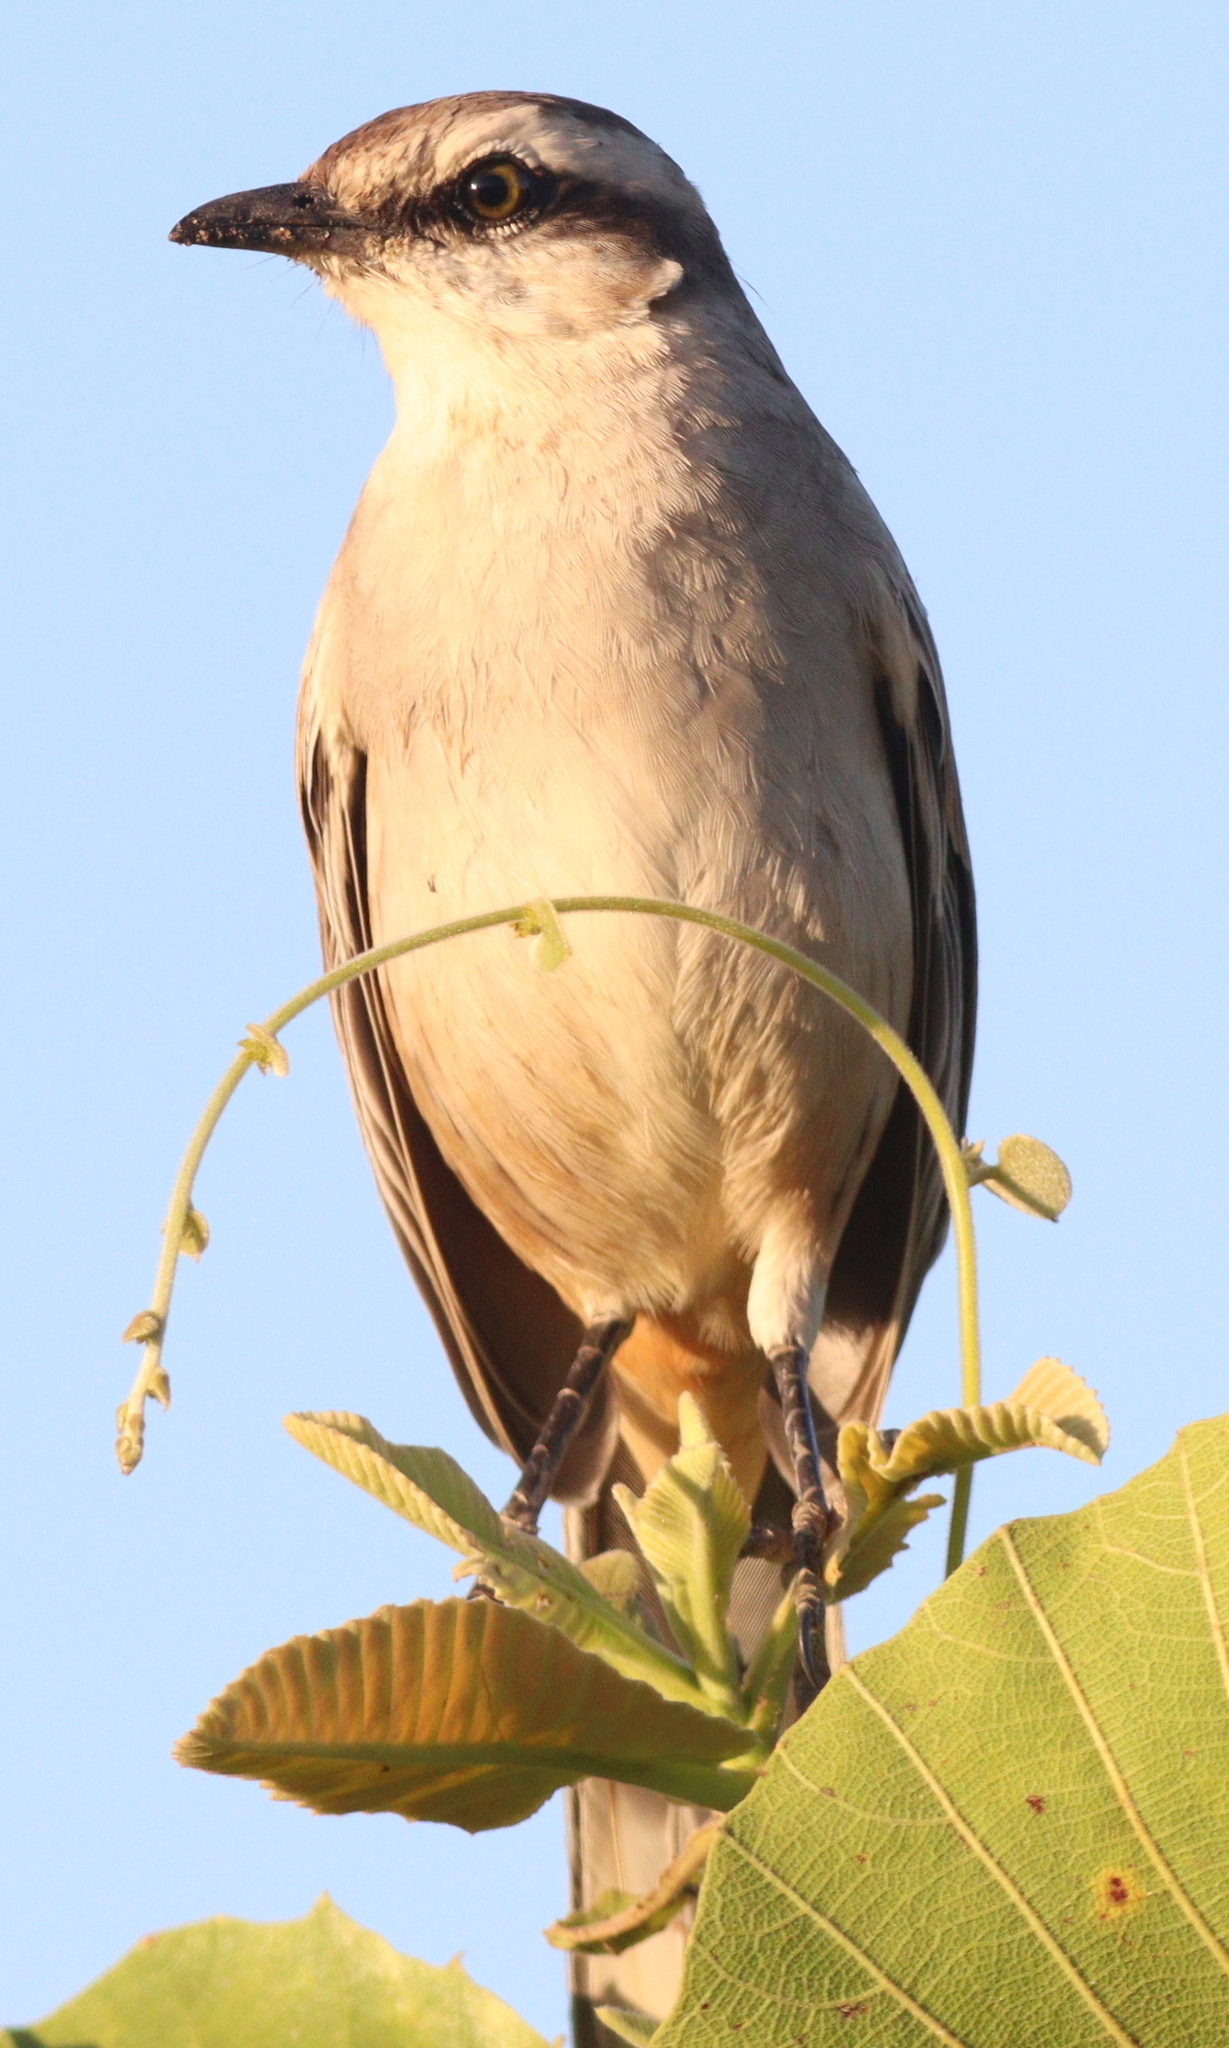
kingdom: Animalia
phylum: Chordata
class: Aves
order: Passeriformes
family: Mimidae
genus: Mimus
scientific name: Mimus saturninus
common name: Chalk-browed mockingbird
